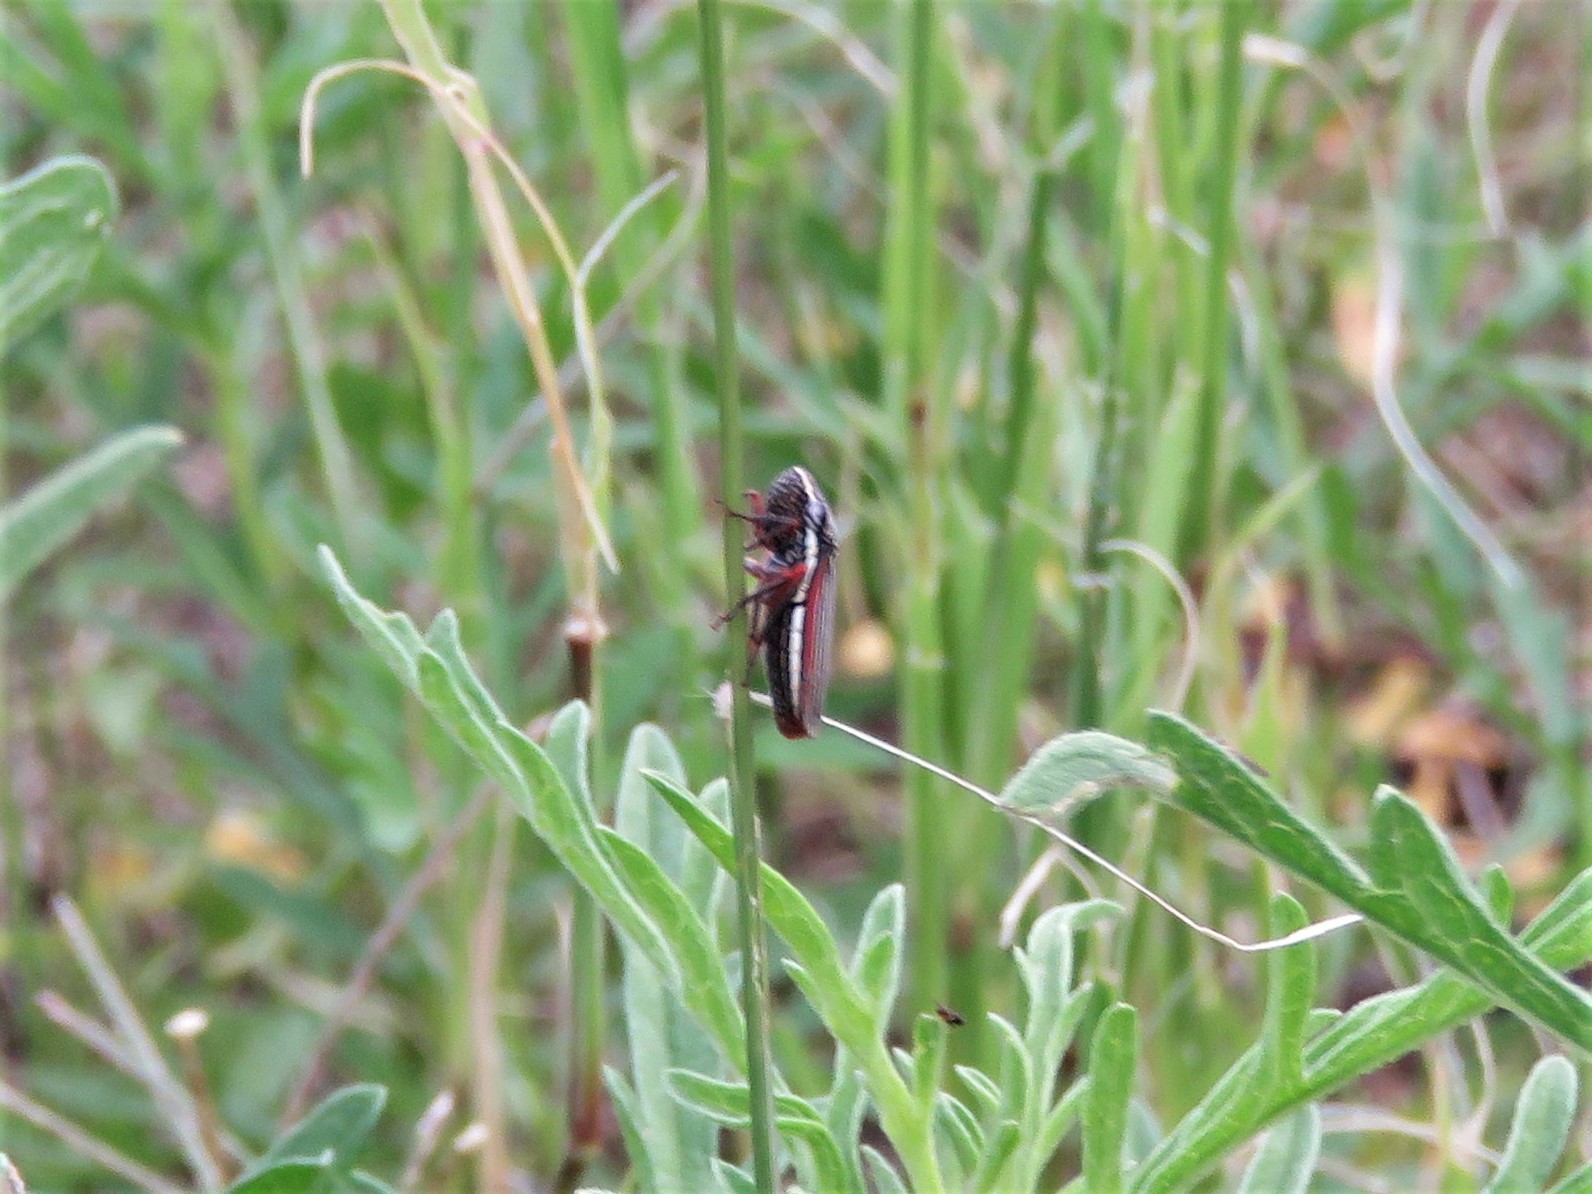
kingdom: Animalia
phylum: Arthropoda
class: Insecta
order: Hemiptera
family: Cicadellidae
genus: Cuerna
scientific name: Cuerna costalis
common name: Lateral-lined sharpshooter
